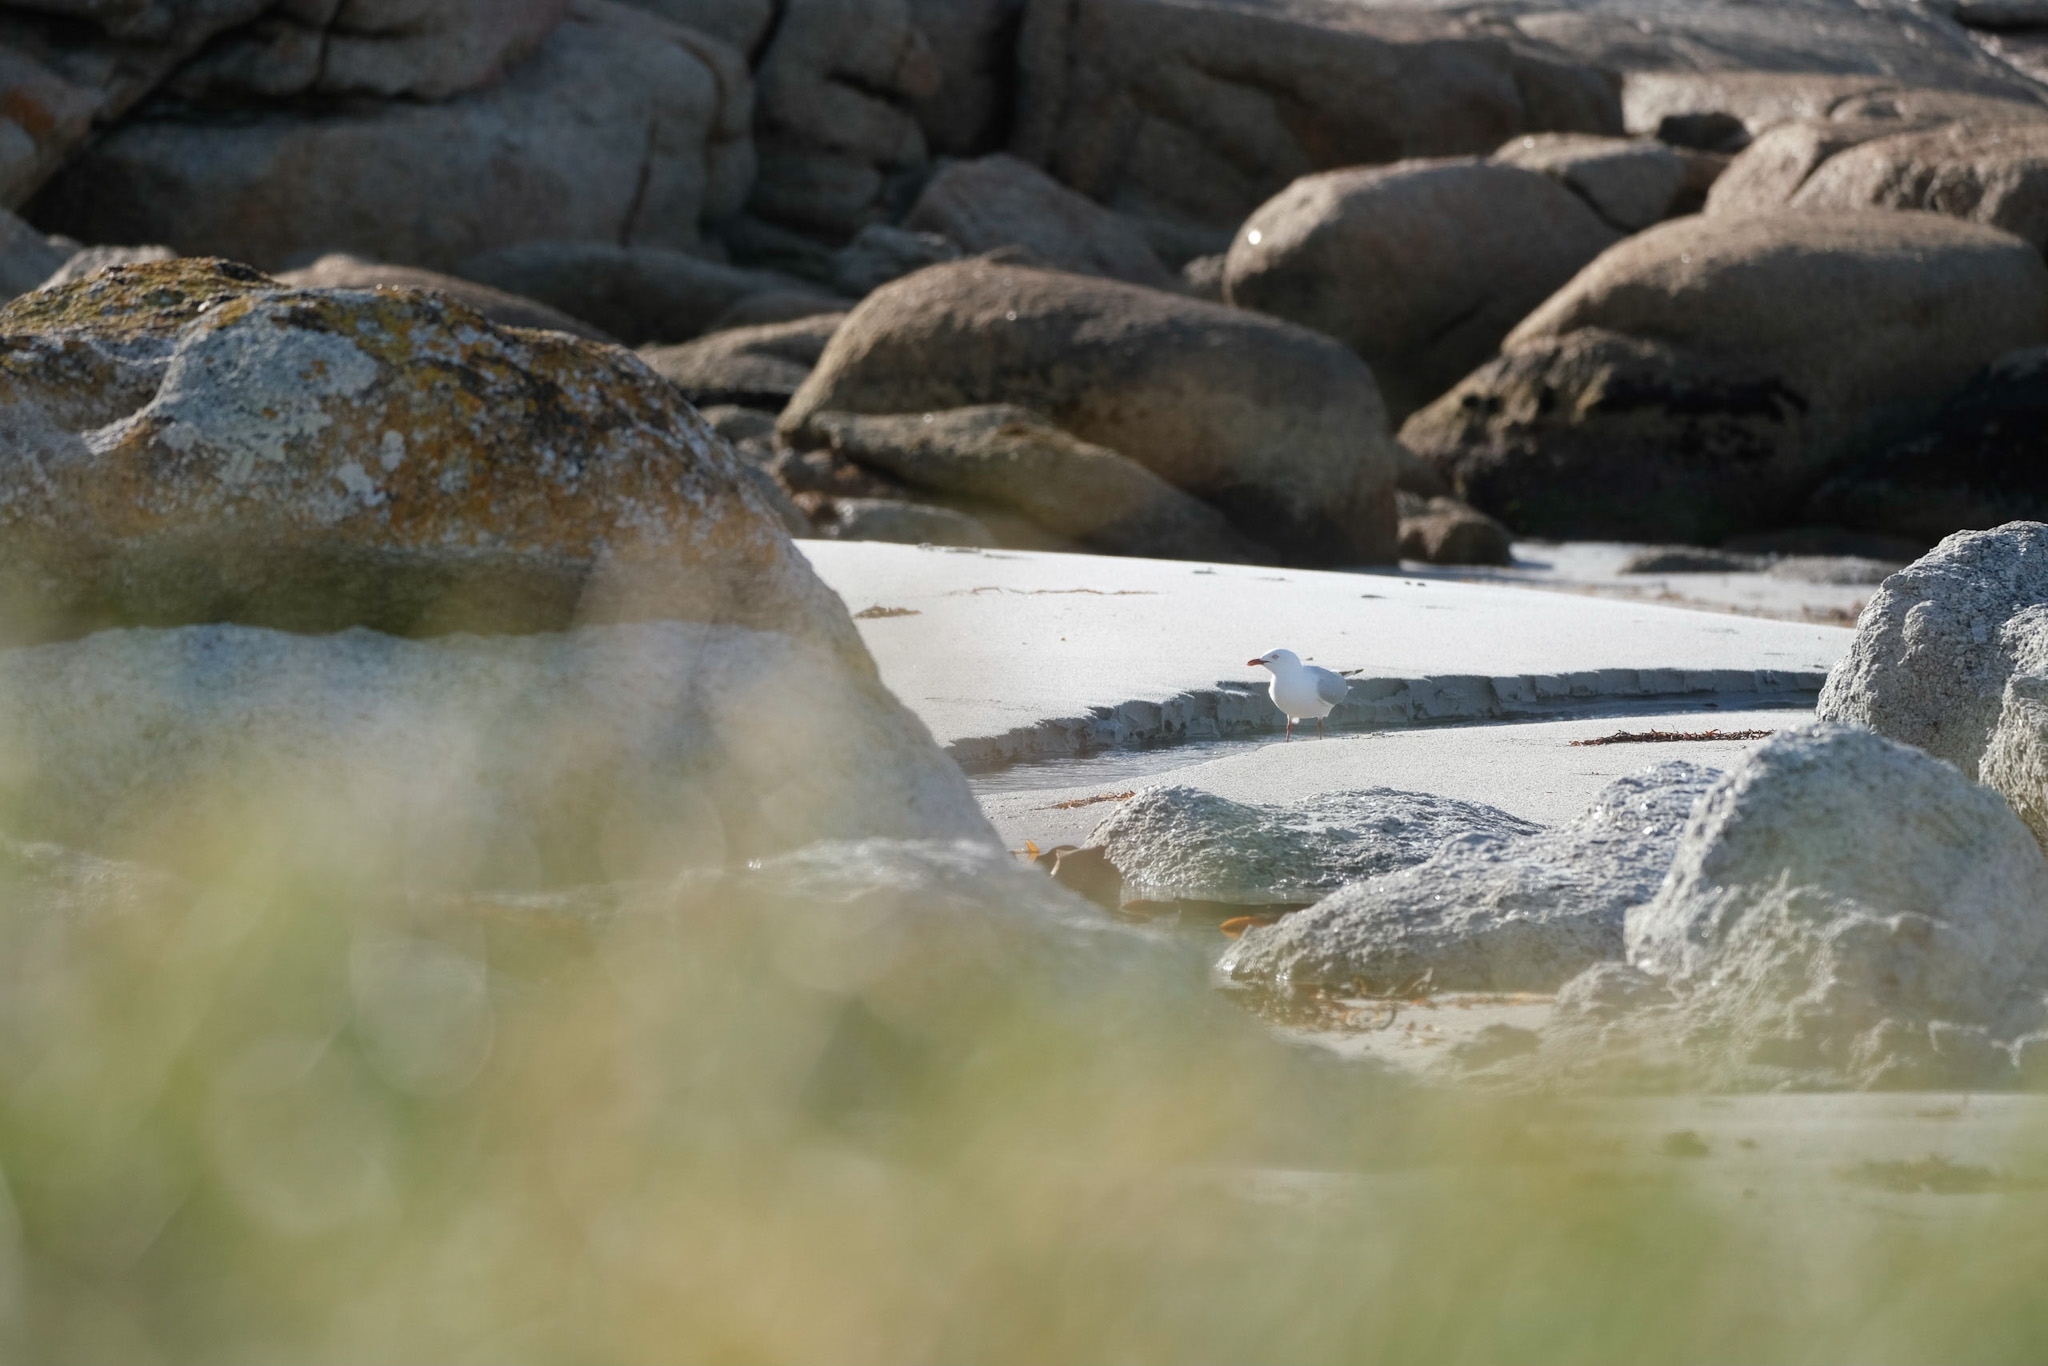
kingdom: Animalia
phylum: Chordata
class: Aves
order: Charadriiformes
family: Laridae
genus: Chroicocephalus
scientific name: Chroicocephalus novaehollandiae
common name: Silver gull
